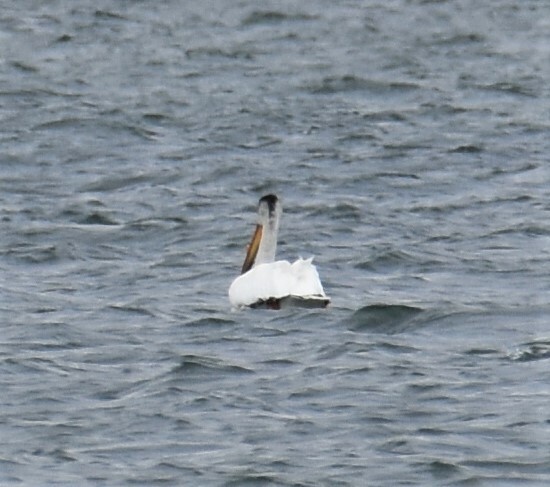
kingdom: Animalia
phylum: Chordata
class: Aves
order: Pelecaniformes
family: Pelecanidae
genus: Pelecanus
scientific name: Pelecanus erythrorhynchos
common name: American white pelican
